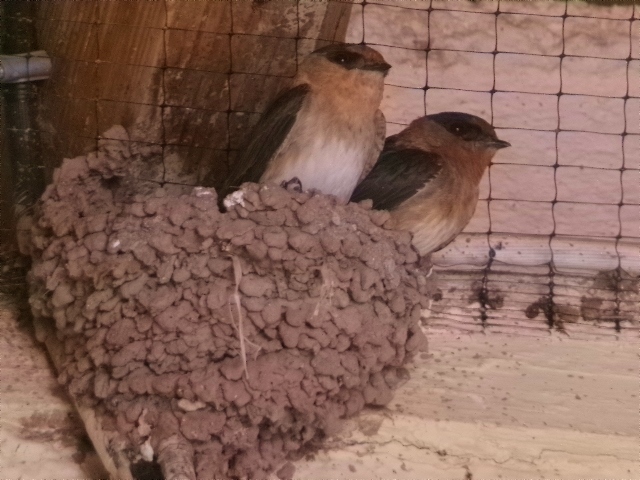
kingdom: Animalia
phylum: Chordata
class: Aves
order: Passeriformes
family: Hirundinidae
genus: Petrochelidon
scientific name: Petrochelidon fulva
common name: Cave swallow
